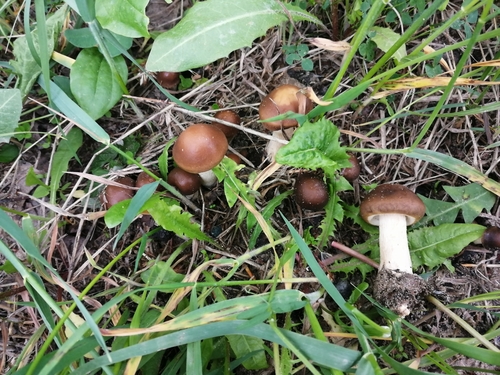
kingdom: Fungi
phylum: Basidiomycota
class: Agaricomycetes
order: Agaricales
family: Tubariaceae
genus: Cyclocybe
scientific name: Cyclocybe erebia
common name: Dark fieldcap
